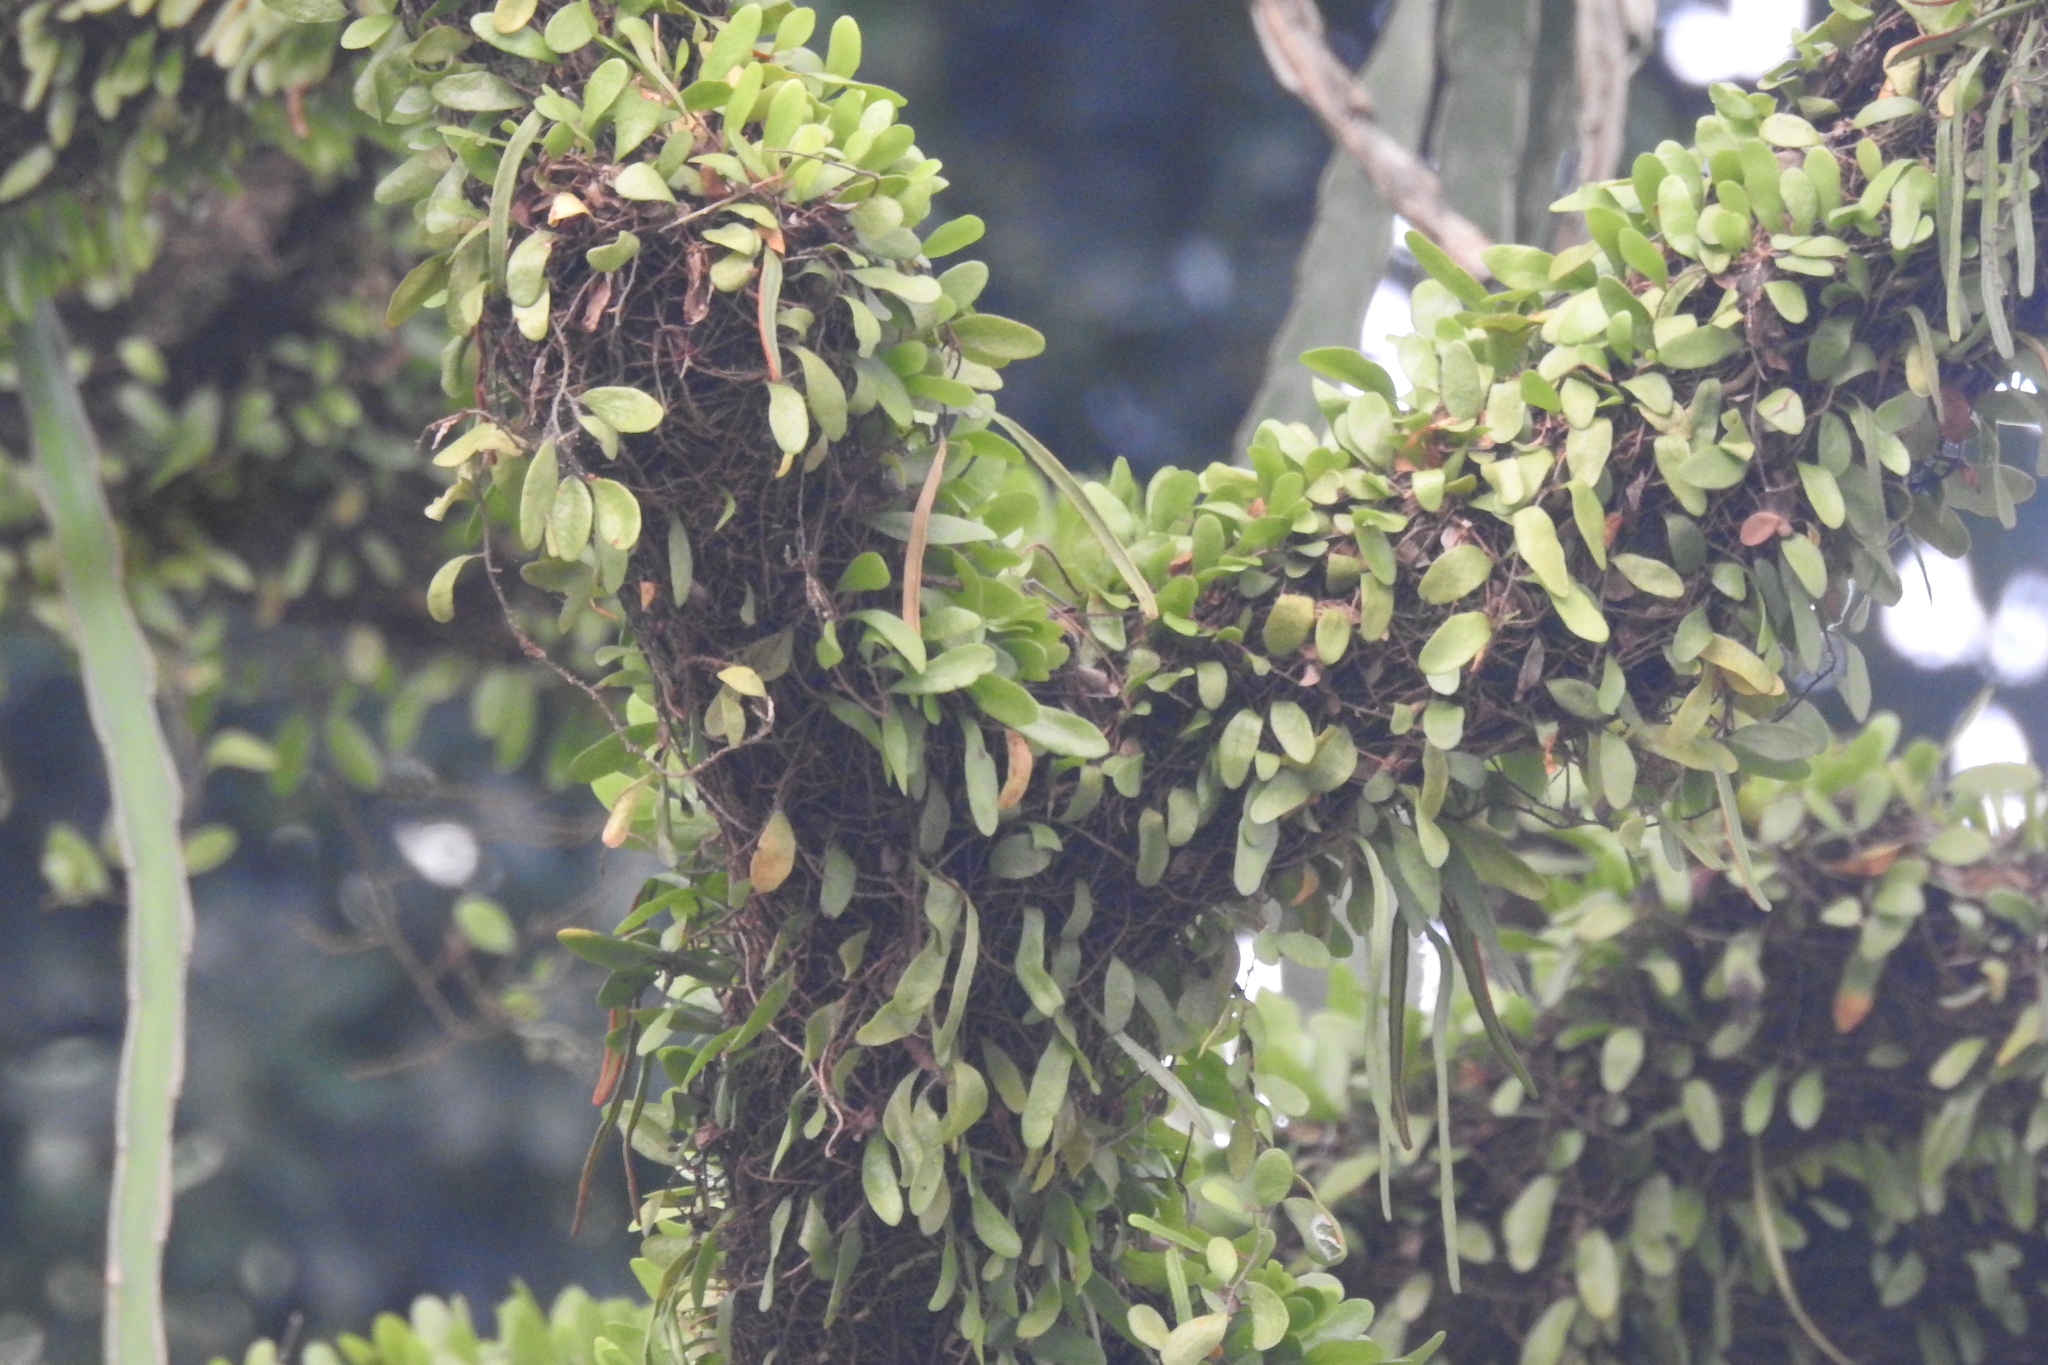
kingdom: Plantae
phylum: Tracheophyta
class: Polypodiopsida
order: Polypodiales
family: Polypodiaceae
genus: Pyrrosia
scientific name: Pyrrosia piloselloides
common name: Epiphytic creeping fern
